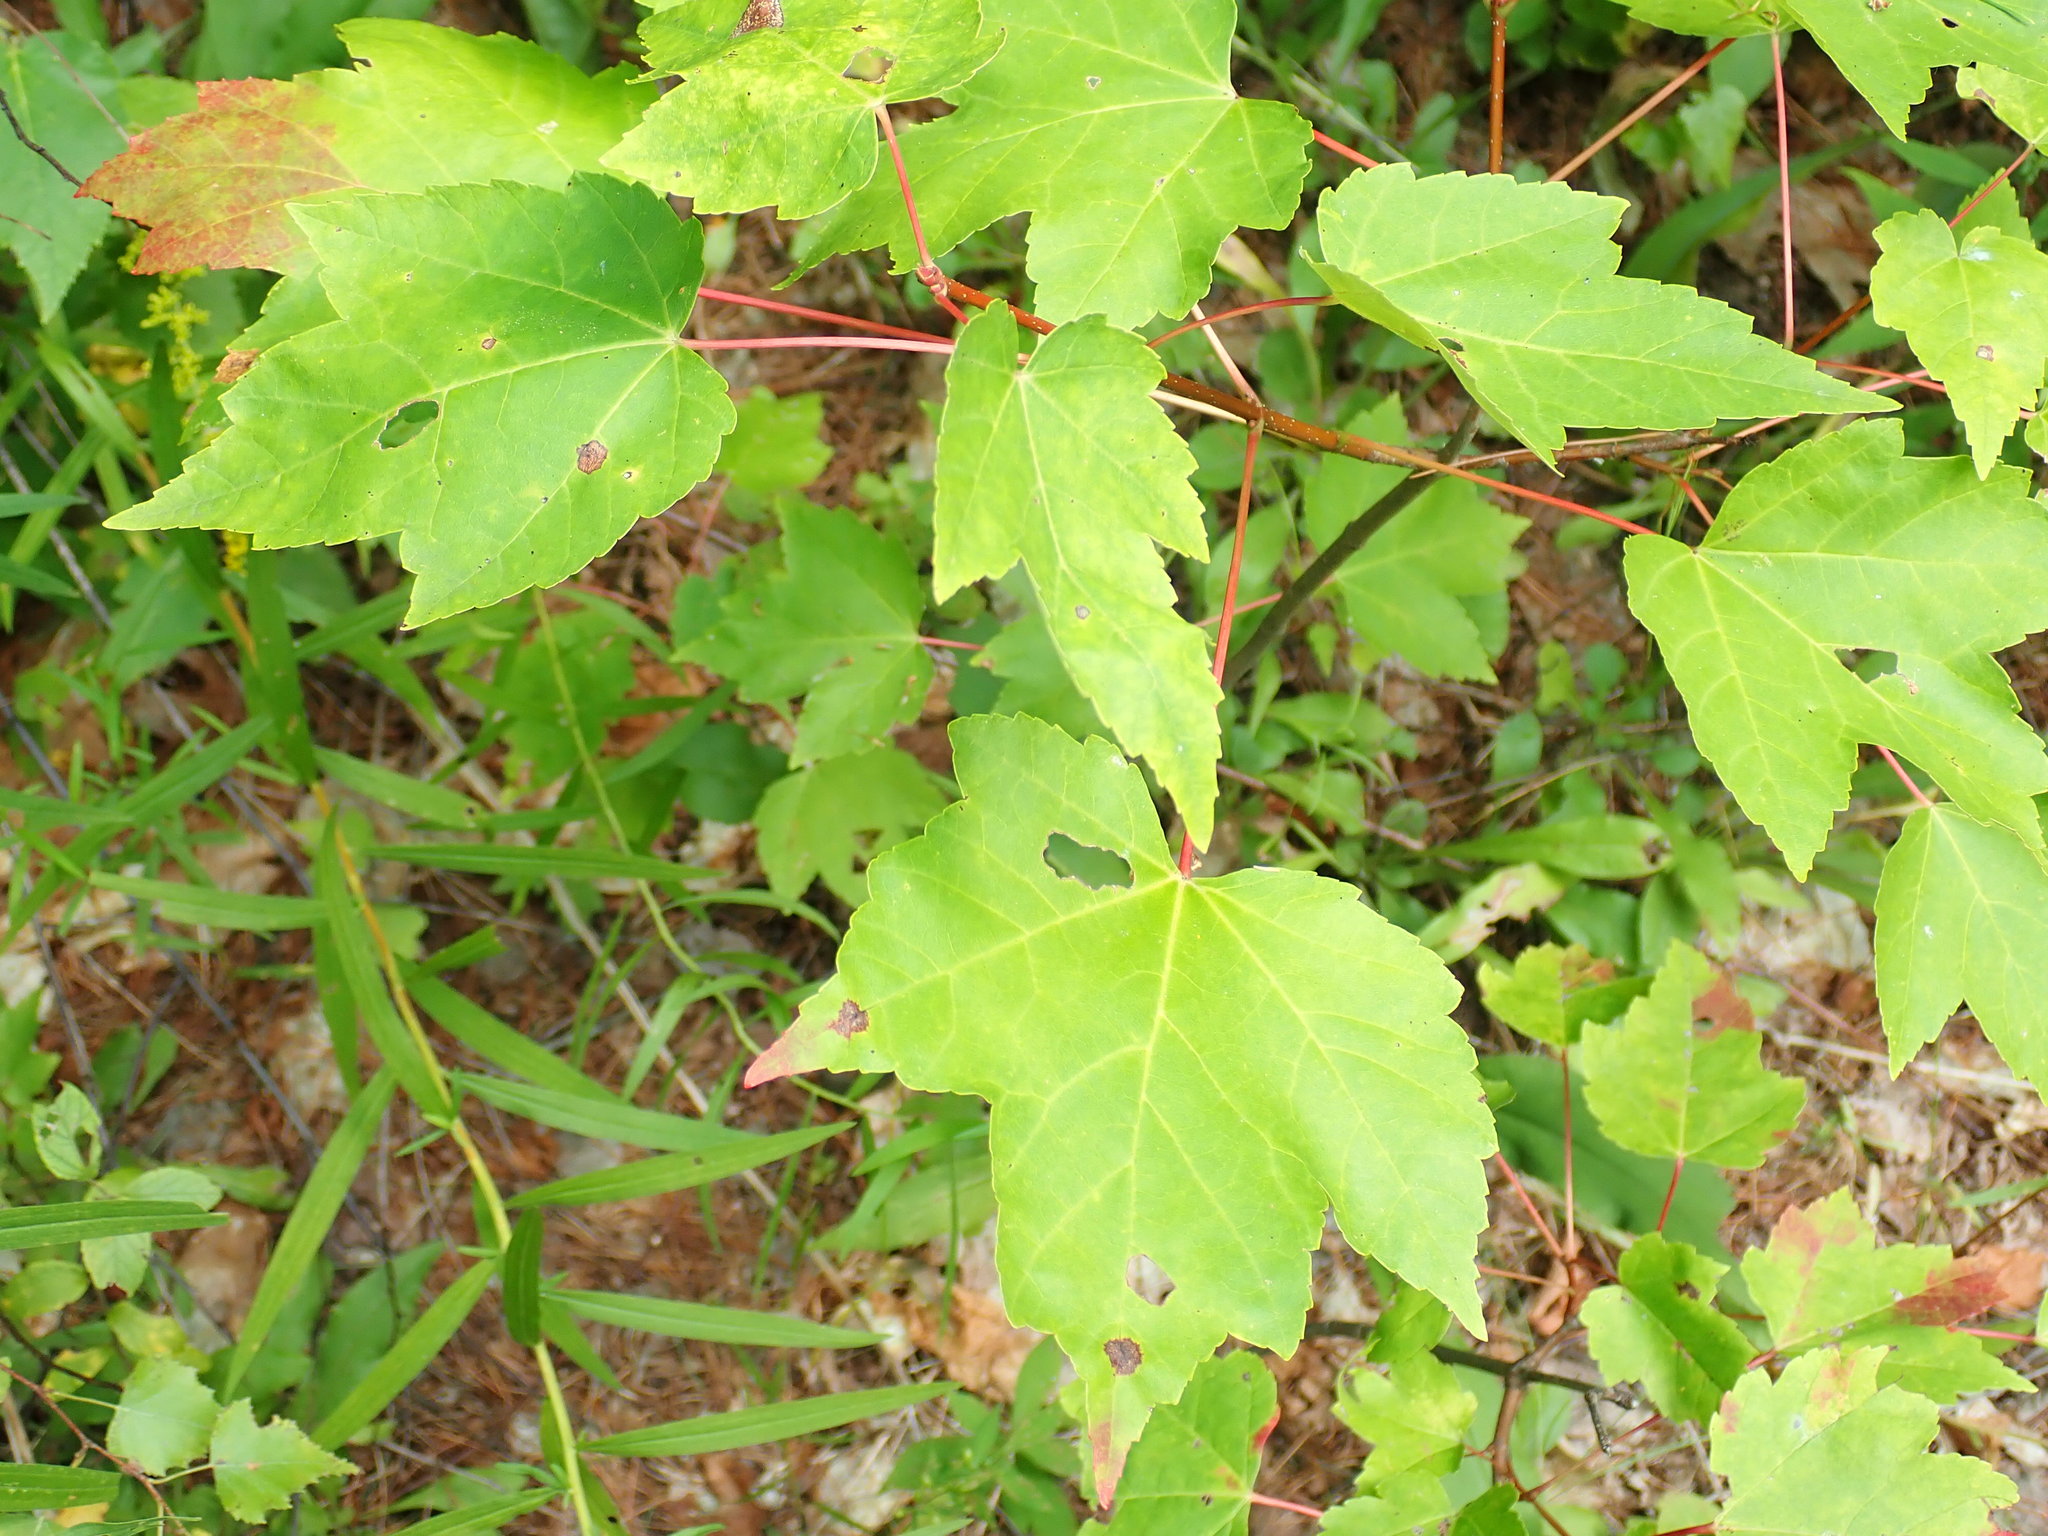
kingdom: Plantae
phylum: Tracheophyta
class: Magnoliopsida
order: Sapindales
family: Sapindaceae
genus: Acer
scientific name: Acer rubrum
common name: Red maple
